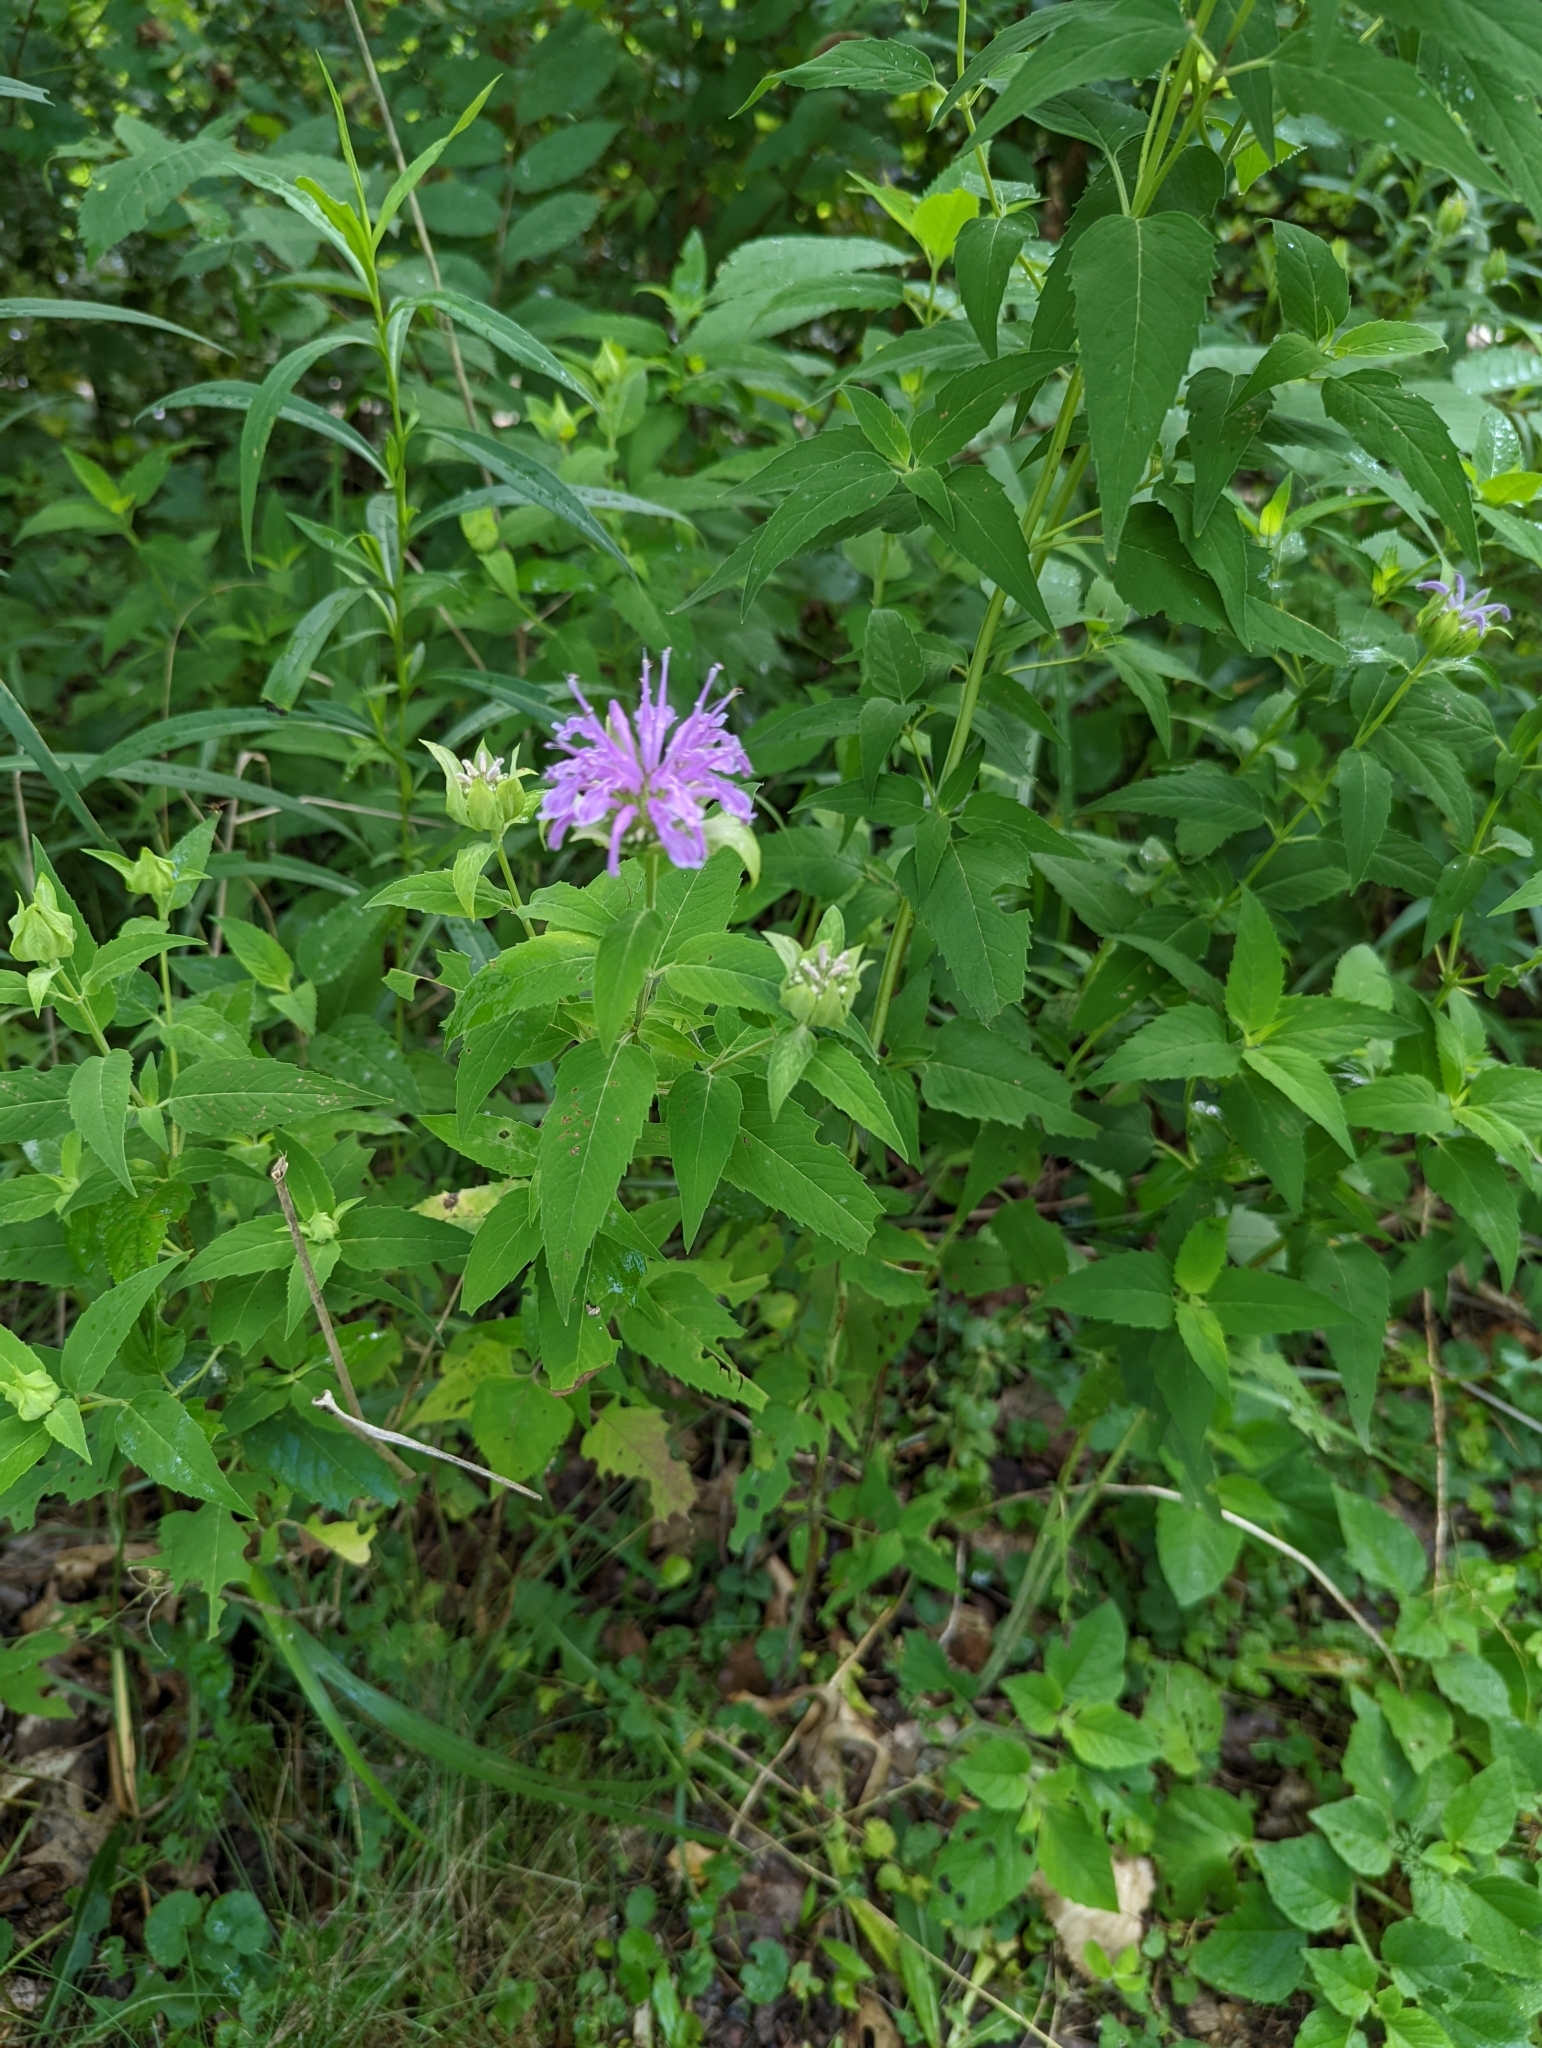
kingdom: Plantae
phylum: Tracheophyta
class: Magnoliopsida
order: Lamiales
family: Lamiaceae
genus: Monarda
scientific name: Monarda fistulosa
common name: Purple beebalm
